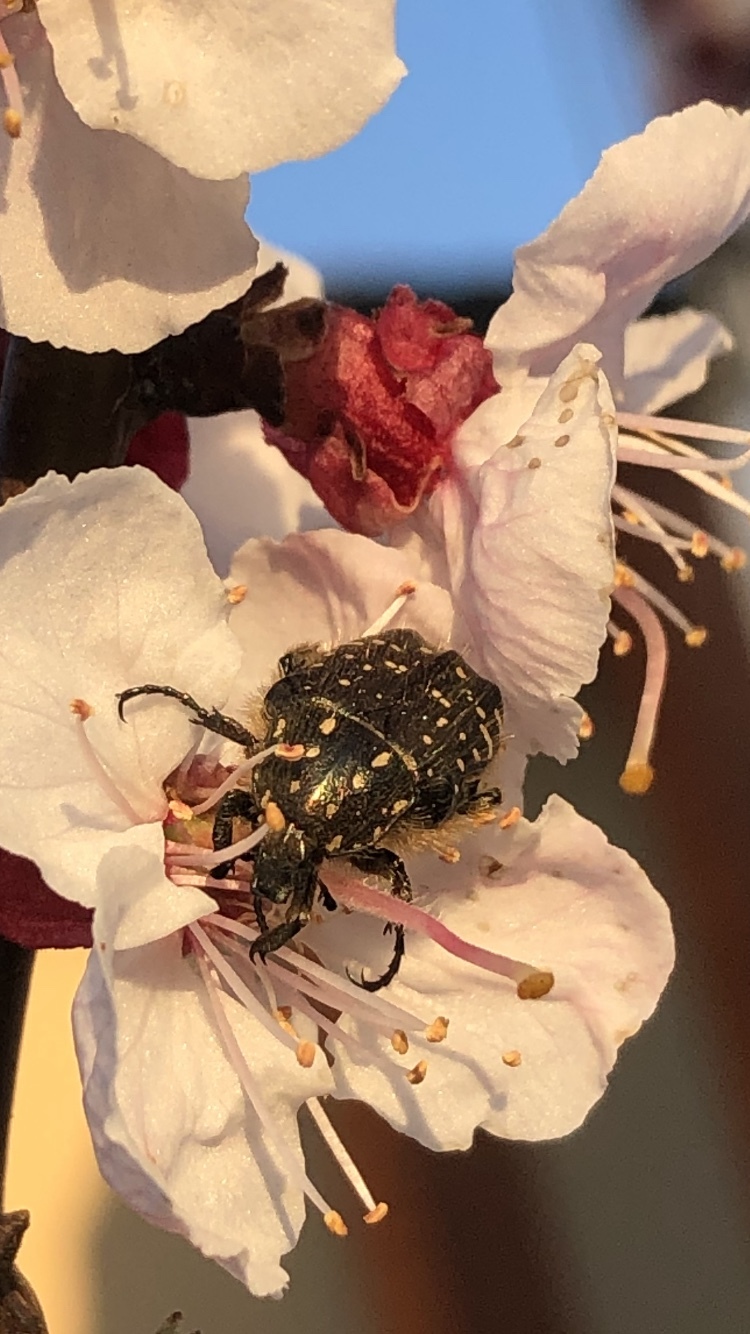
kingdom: Animalia
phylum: Arthropoda
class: Insecta
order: Coleoptera
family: Scarabaeidae
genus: Oxythyrea
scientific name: Oxythyrea funesta
